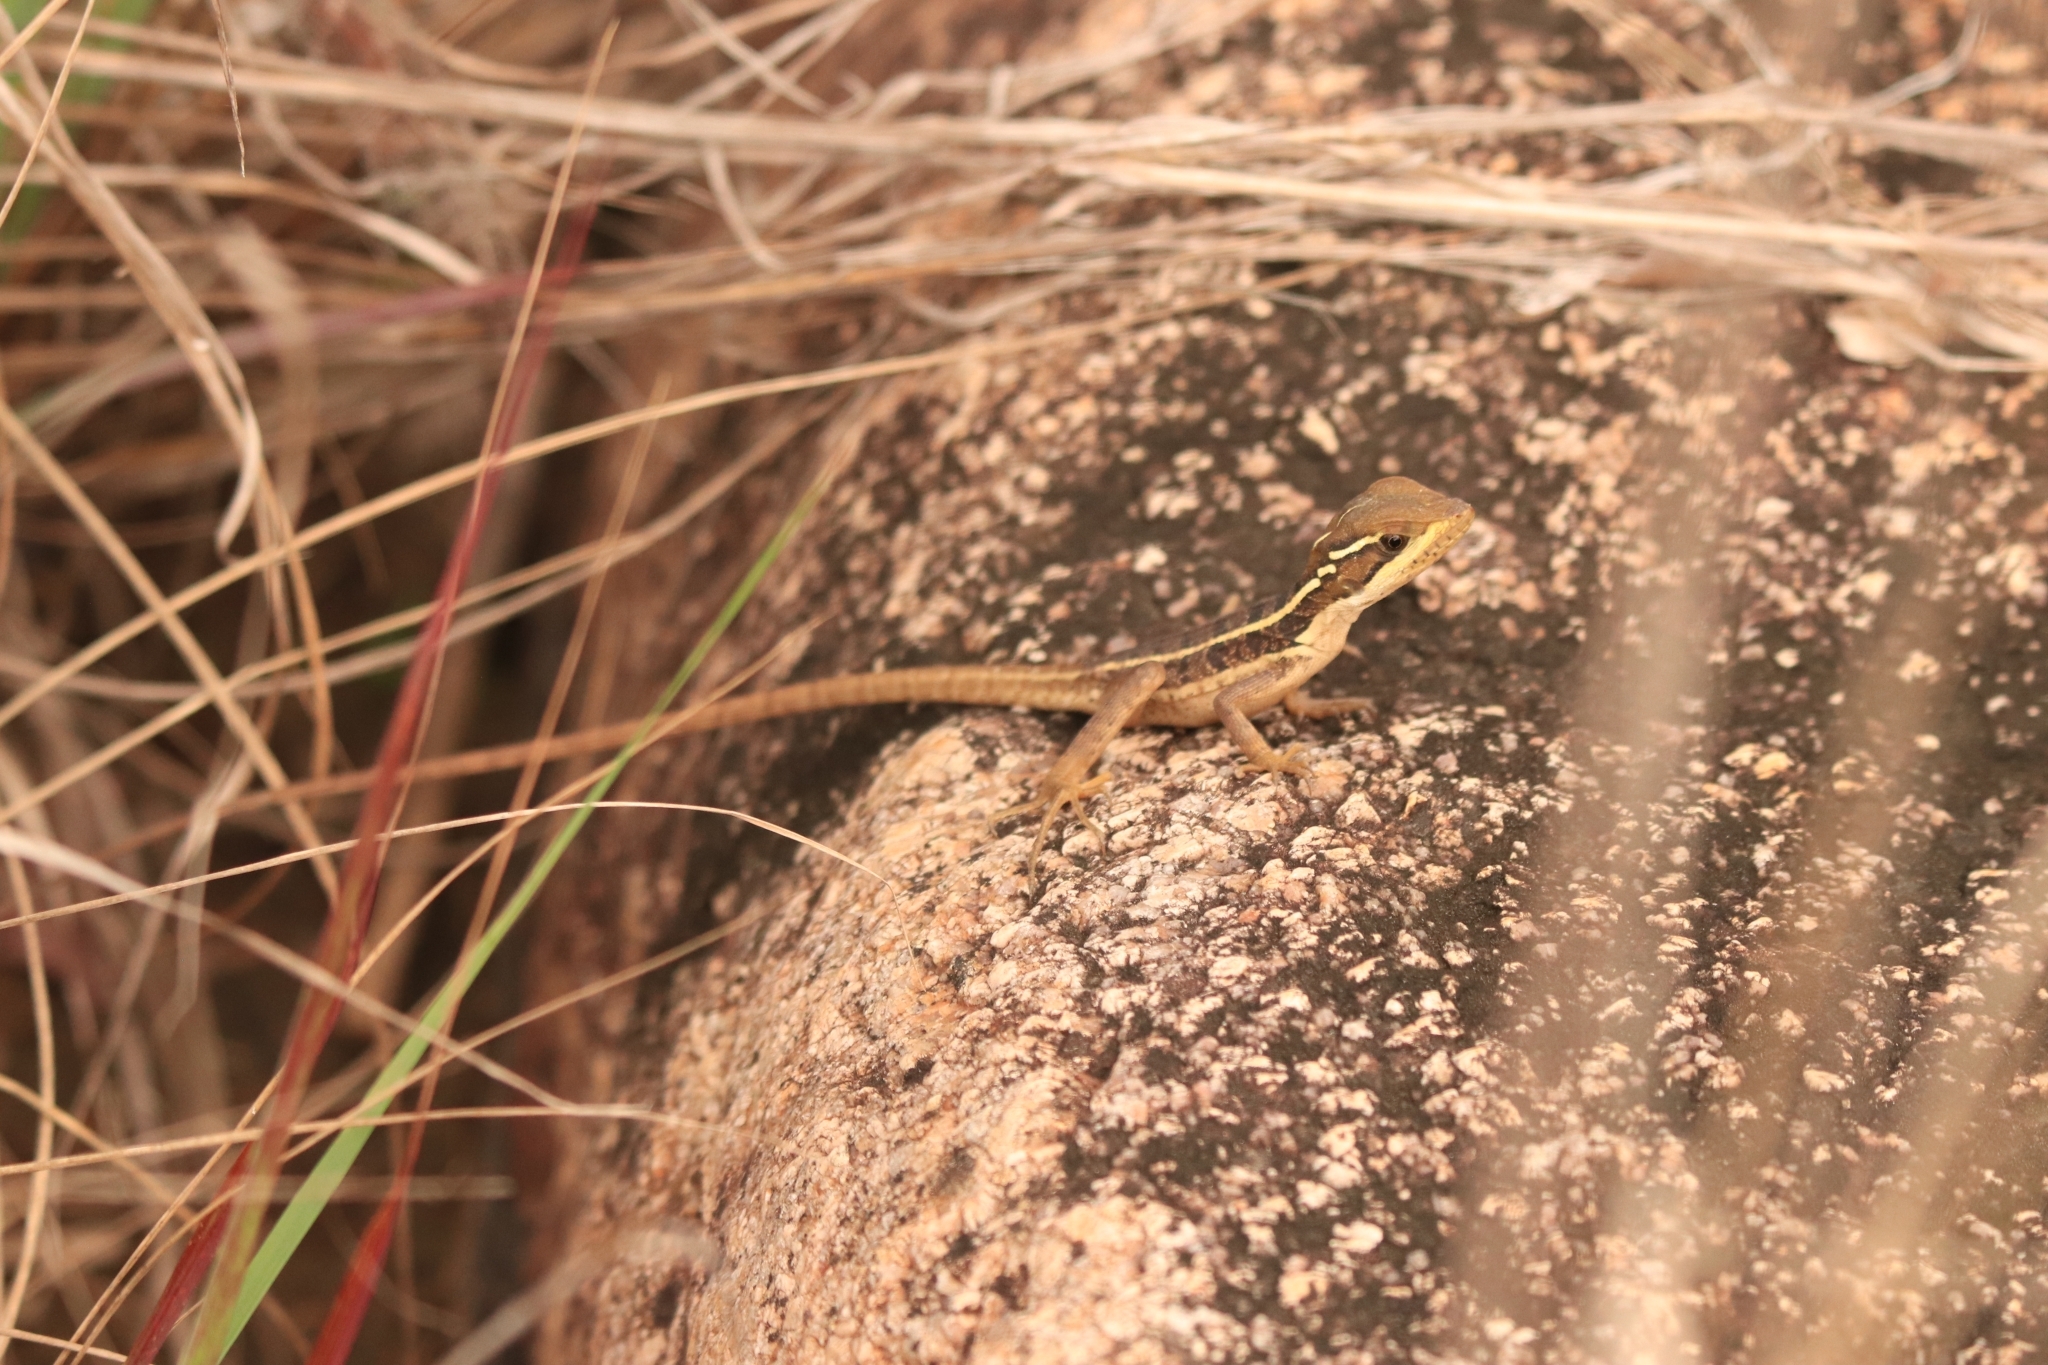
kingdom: Animalia
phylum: Chordata
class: Squamata
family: Corytophanidae
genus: Basiliscus
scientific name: Basiliscus vittatus
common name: Brown basilisk
